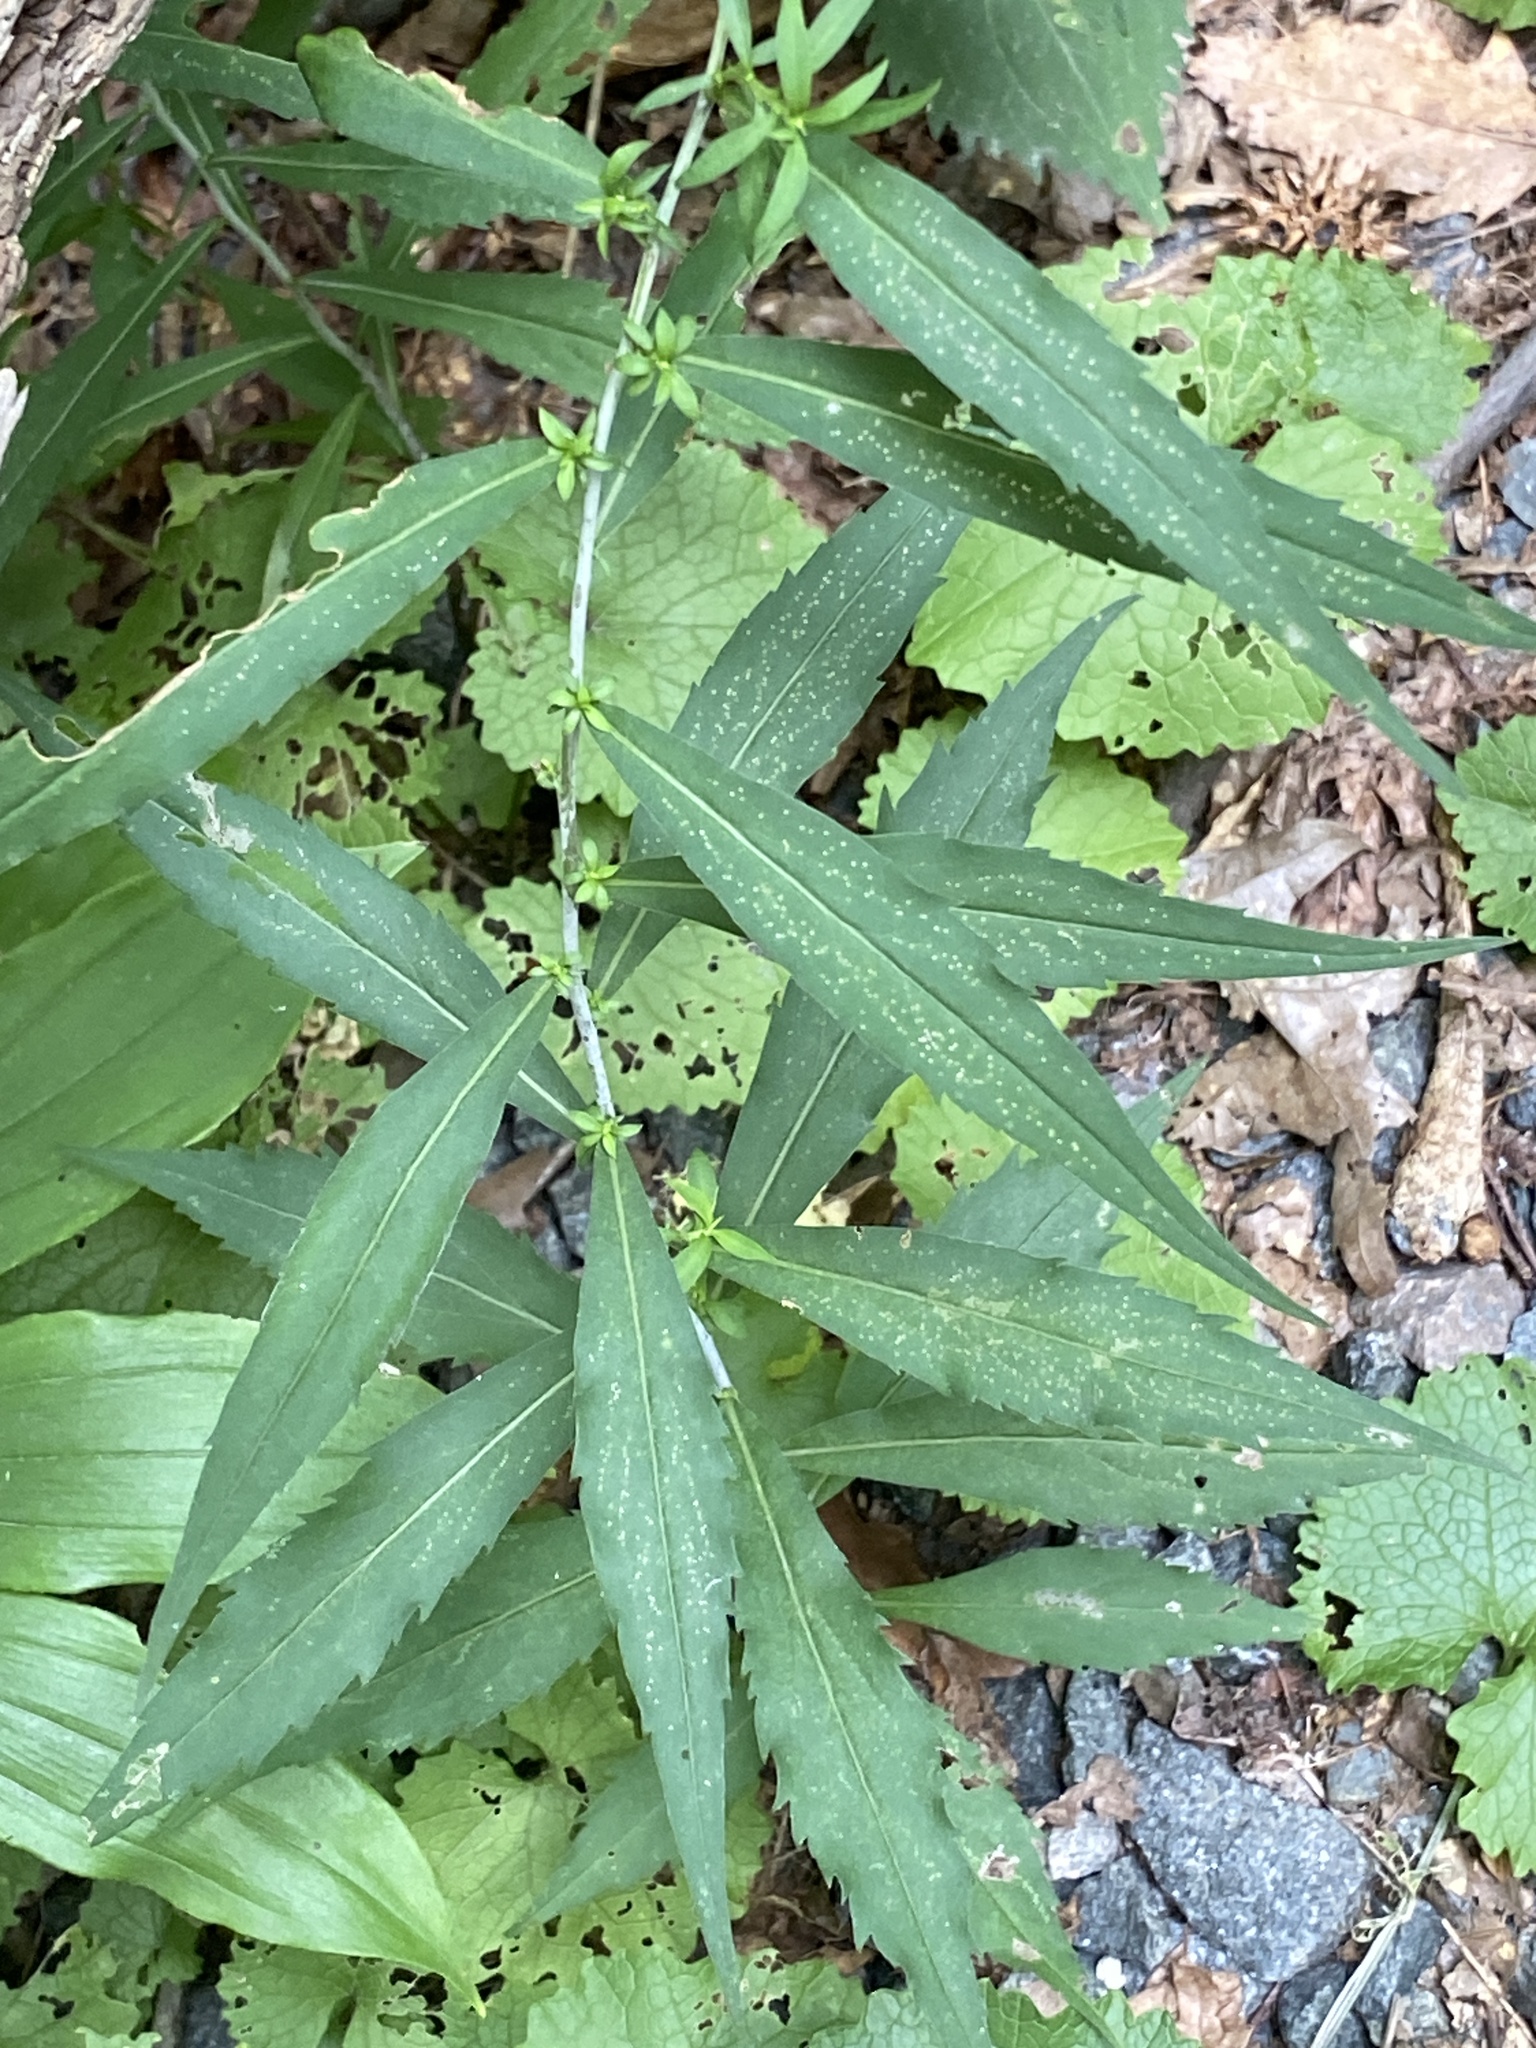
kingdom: Plantae
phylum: Tracheophyta
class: Magnoliopsida
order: Asterales
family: Asteraceae
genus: Solidago
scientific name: Solidago caesia
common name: Woodland goldenrod
